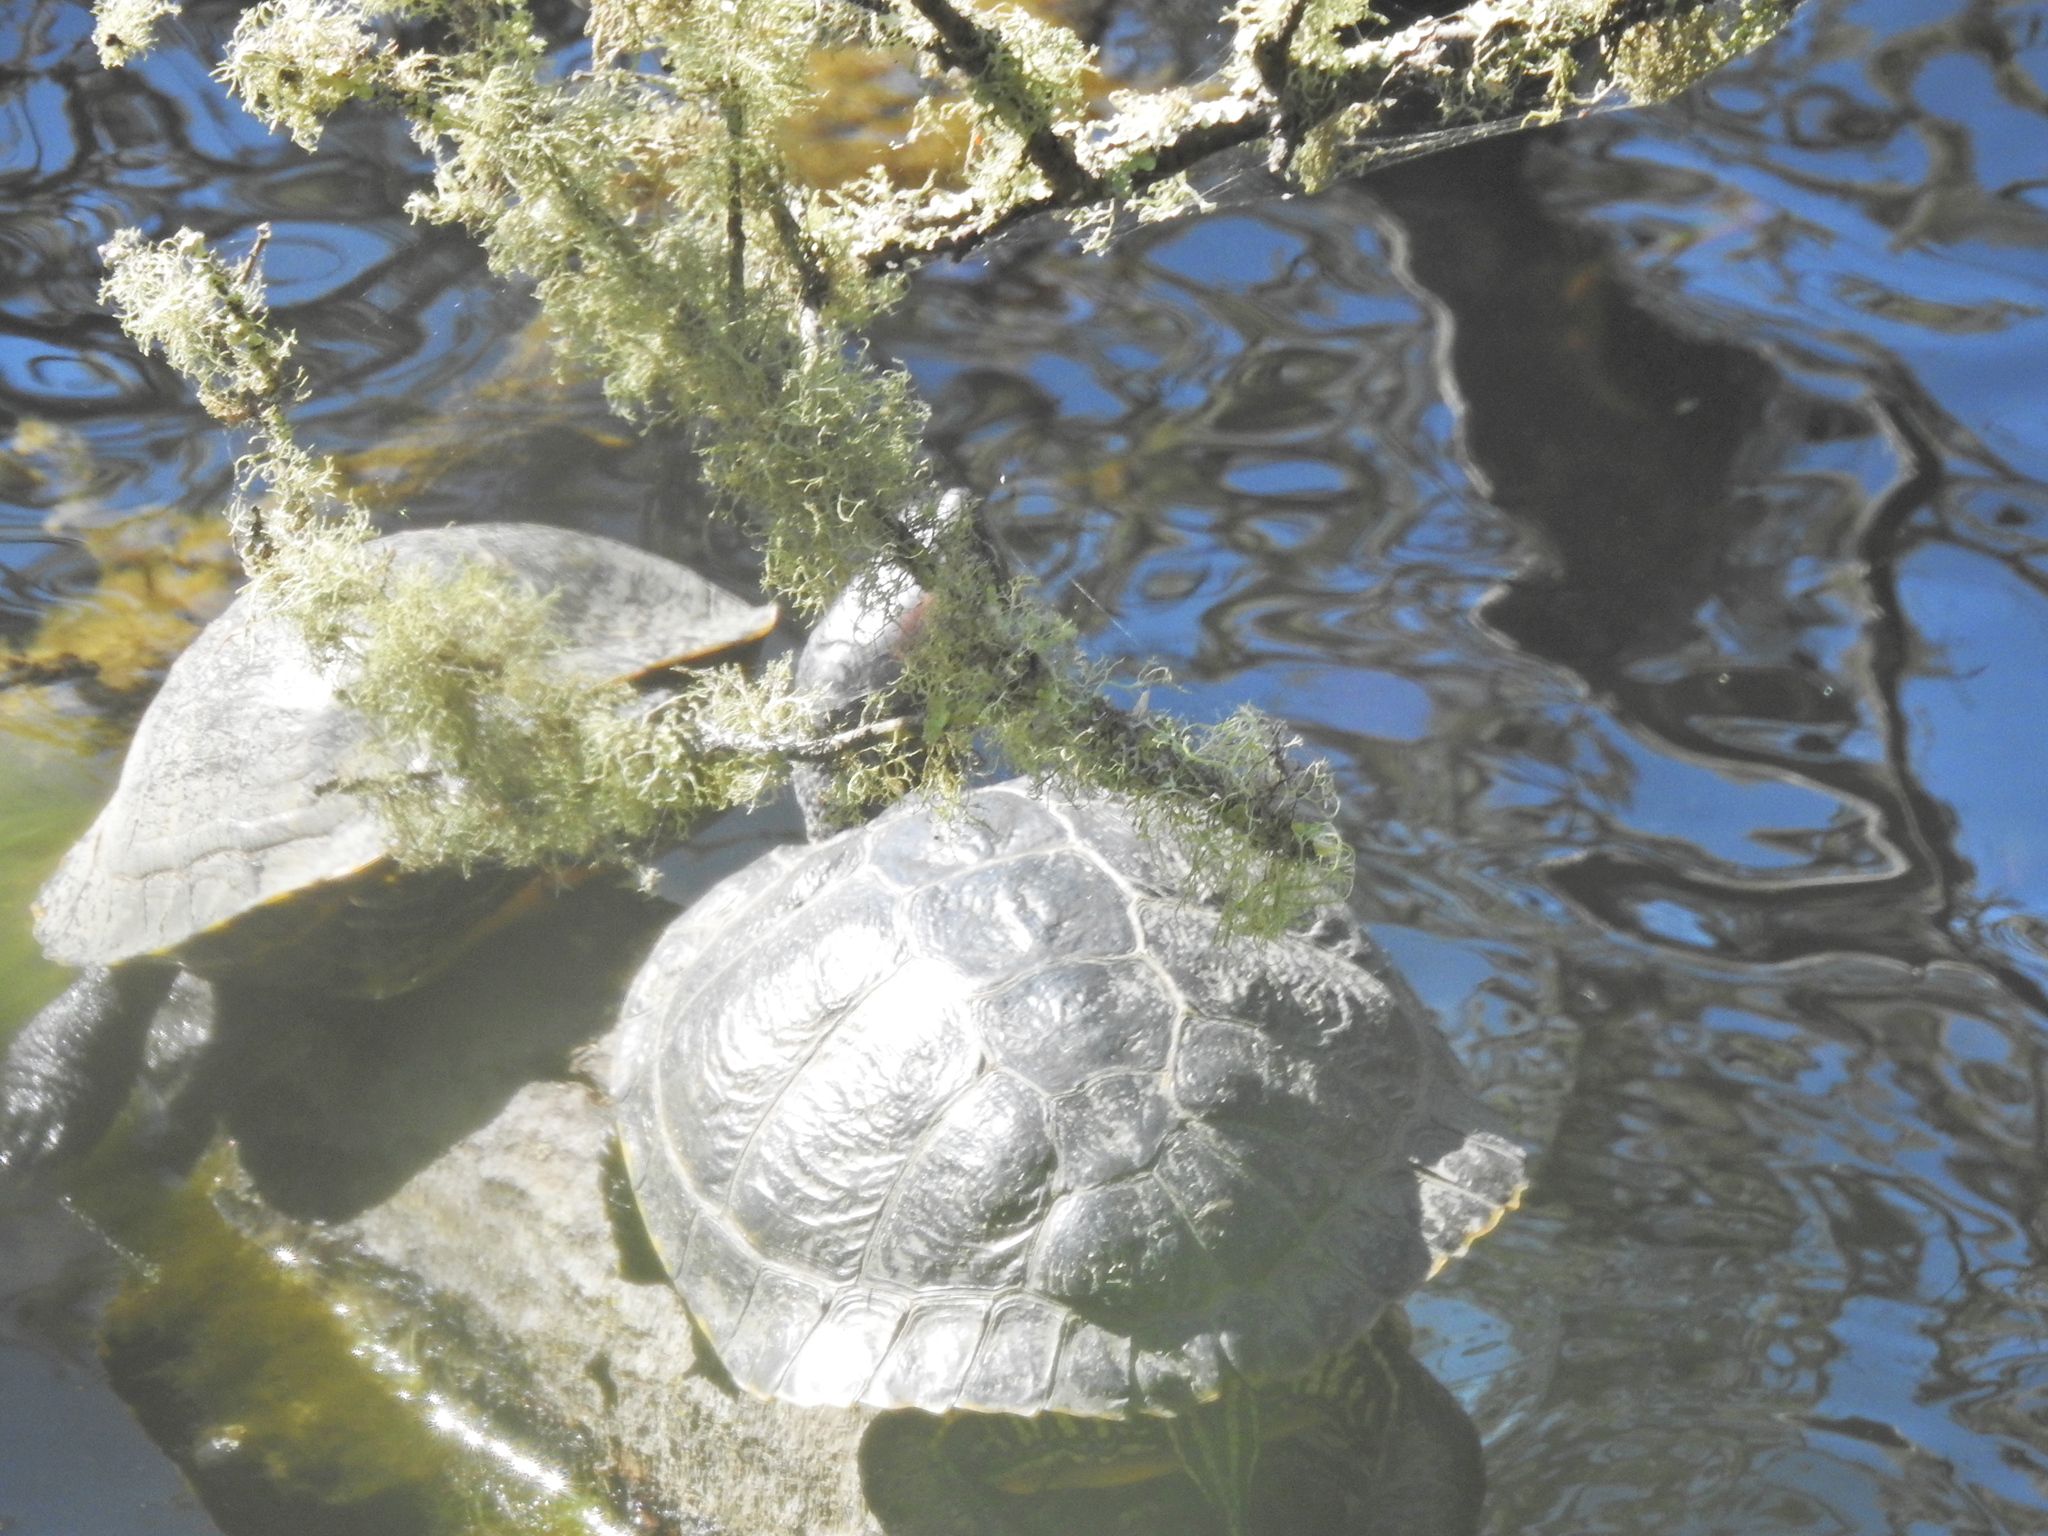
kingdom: Animalia
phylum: Chordata
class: Testudines
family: Emydidae
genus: Trachemys
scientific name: Trachemys scripta
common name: Slider
